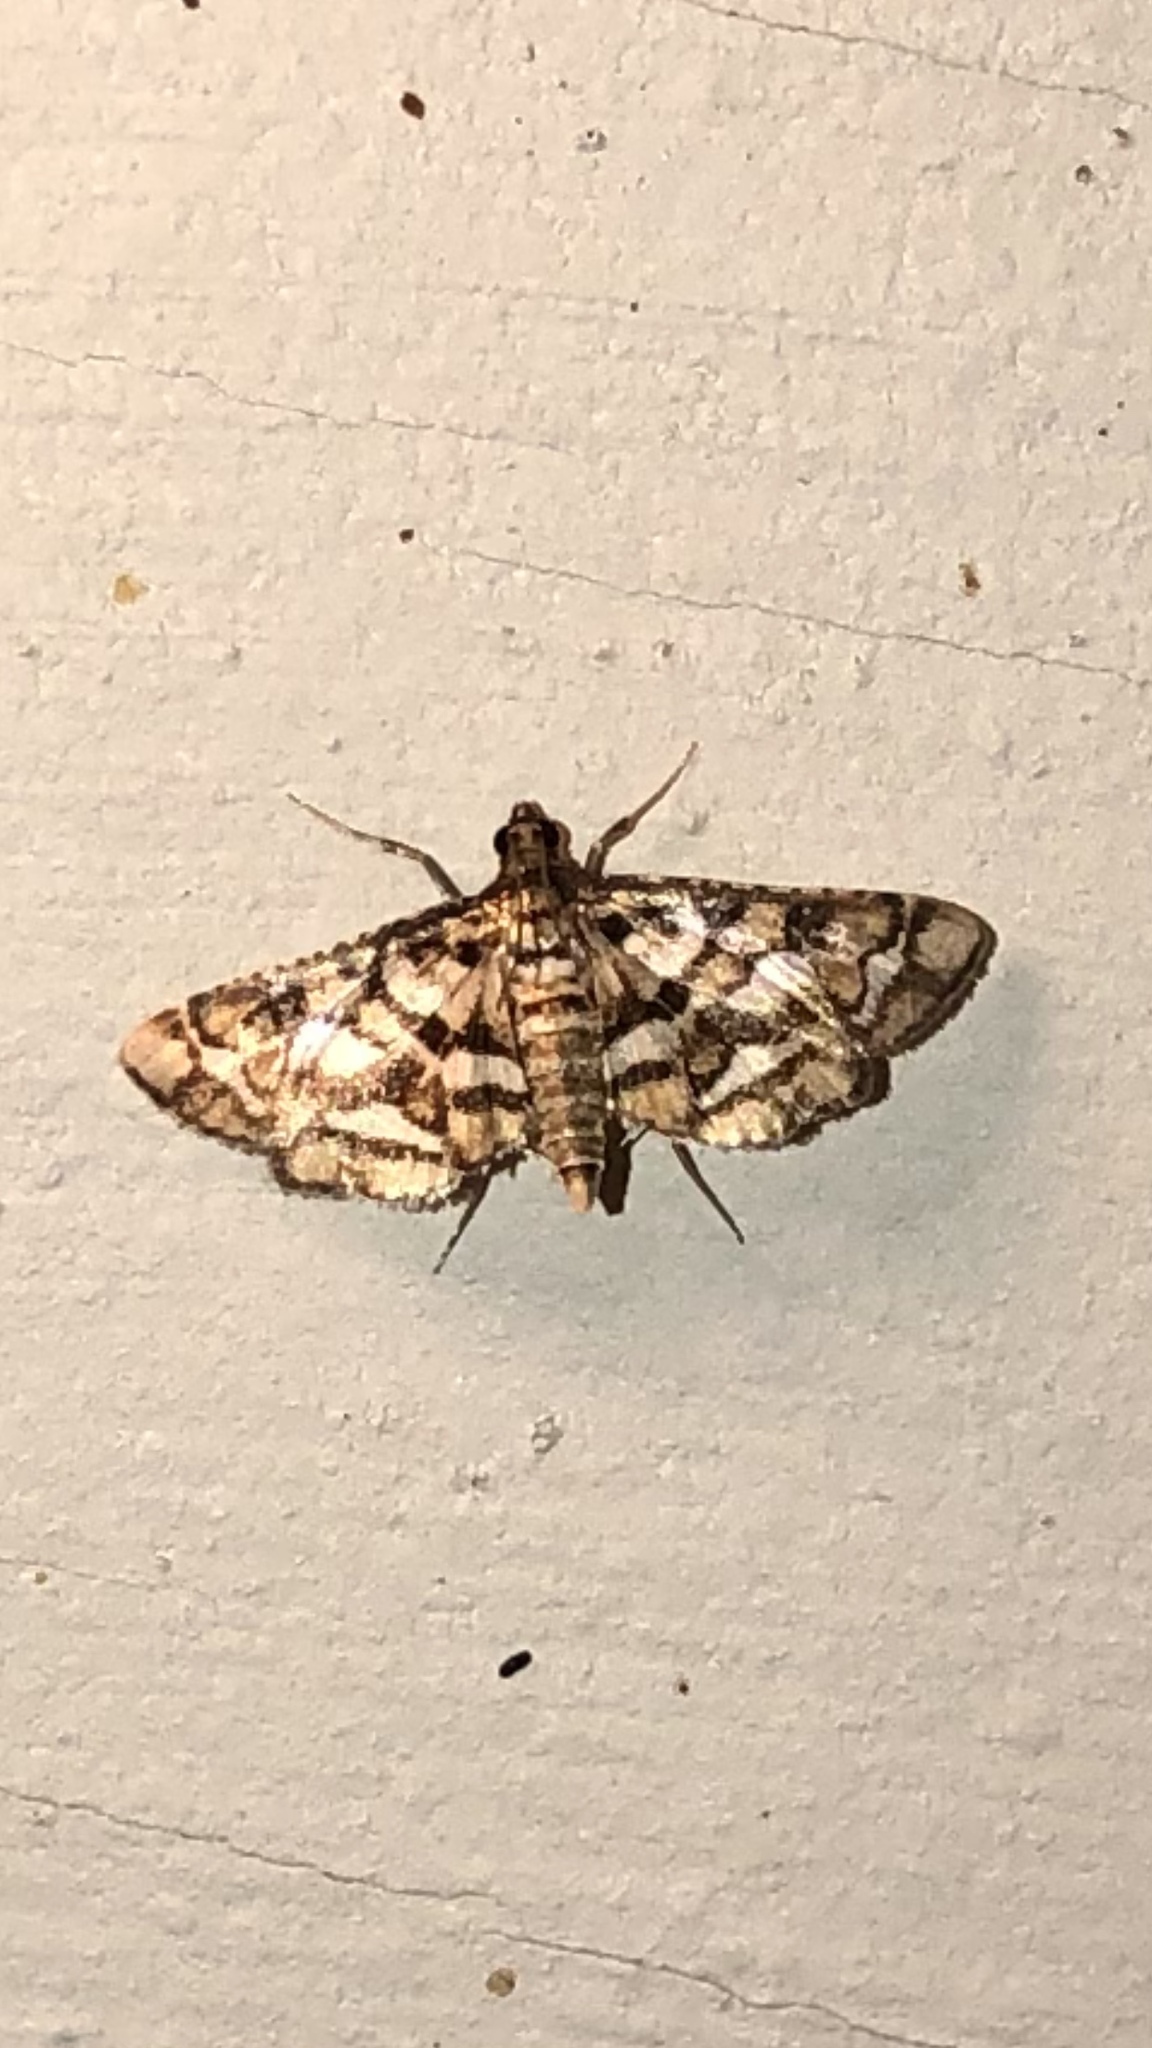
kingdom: Animalia
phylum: Arthropoda
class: Insecta
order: Lepidoptera
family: Crambidae
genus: Hileithia
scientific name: Hileithia magualis
